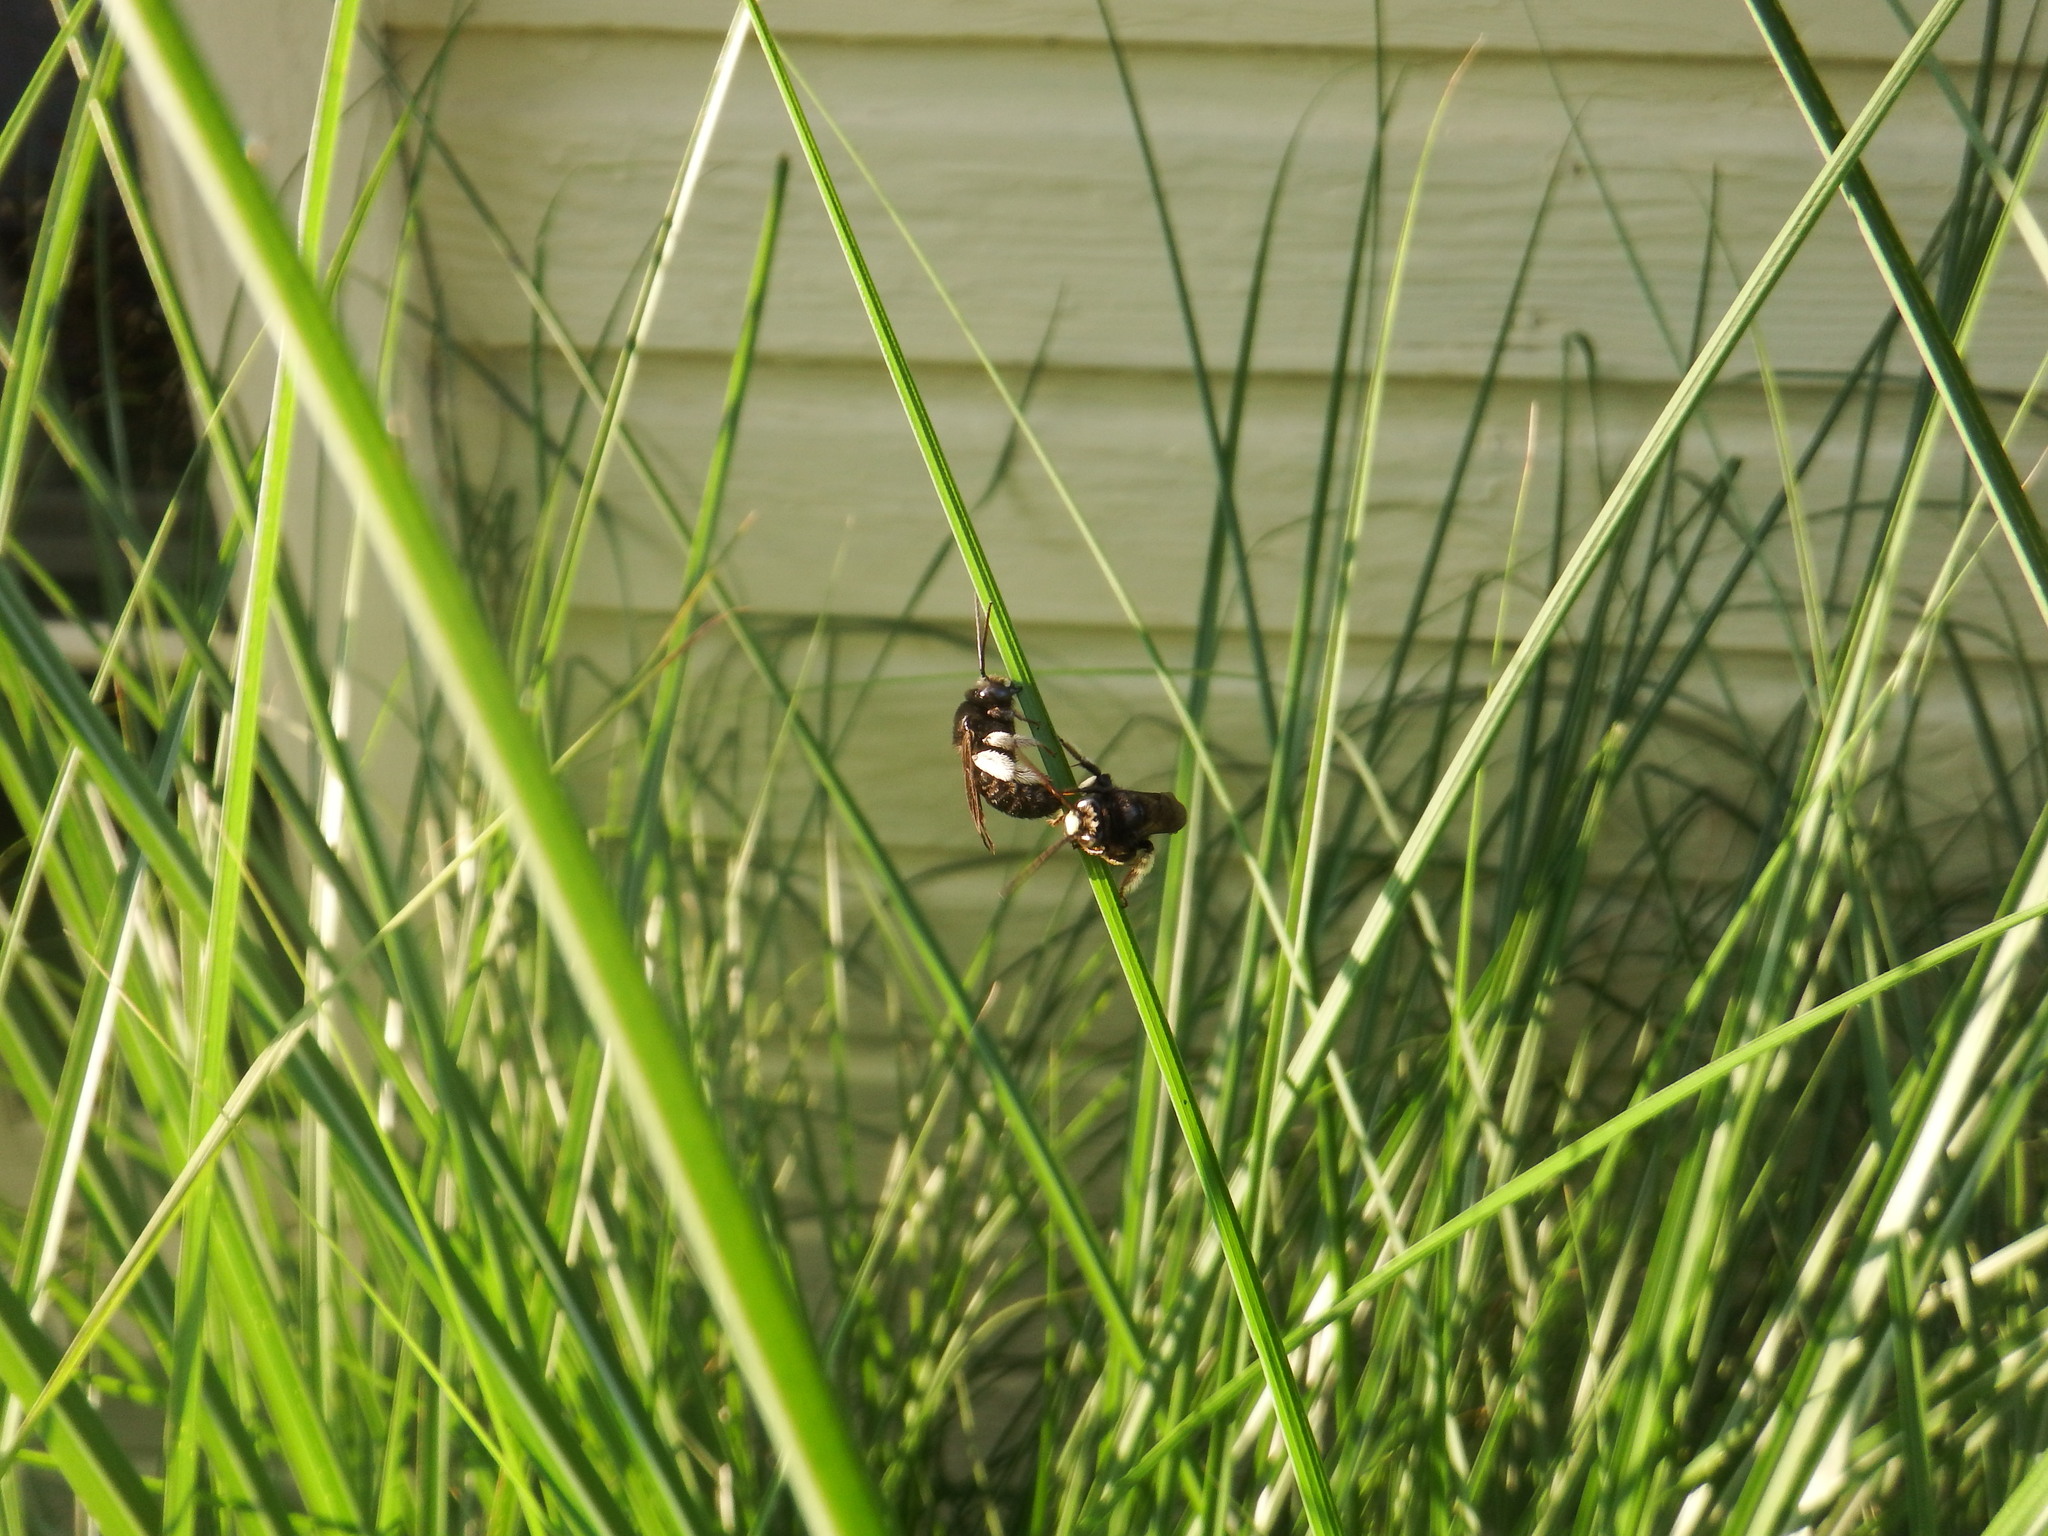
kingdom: Animalia
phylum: Arthropoda
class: Insecta
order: Hymenoptera
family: Apidae
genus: Melissodes
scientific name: Melissodes bimaculatus
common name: Two-spotted long-horned bee
